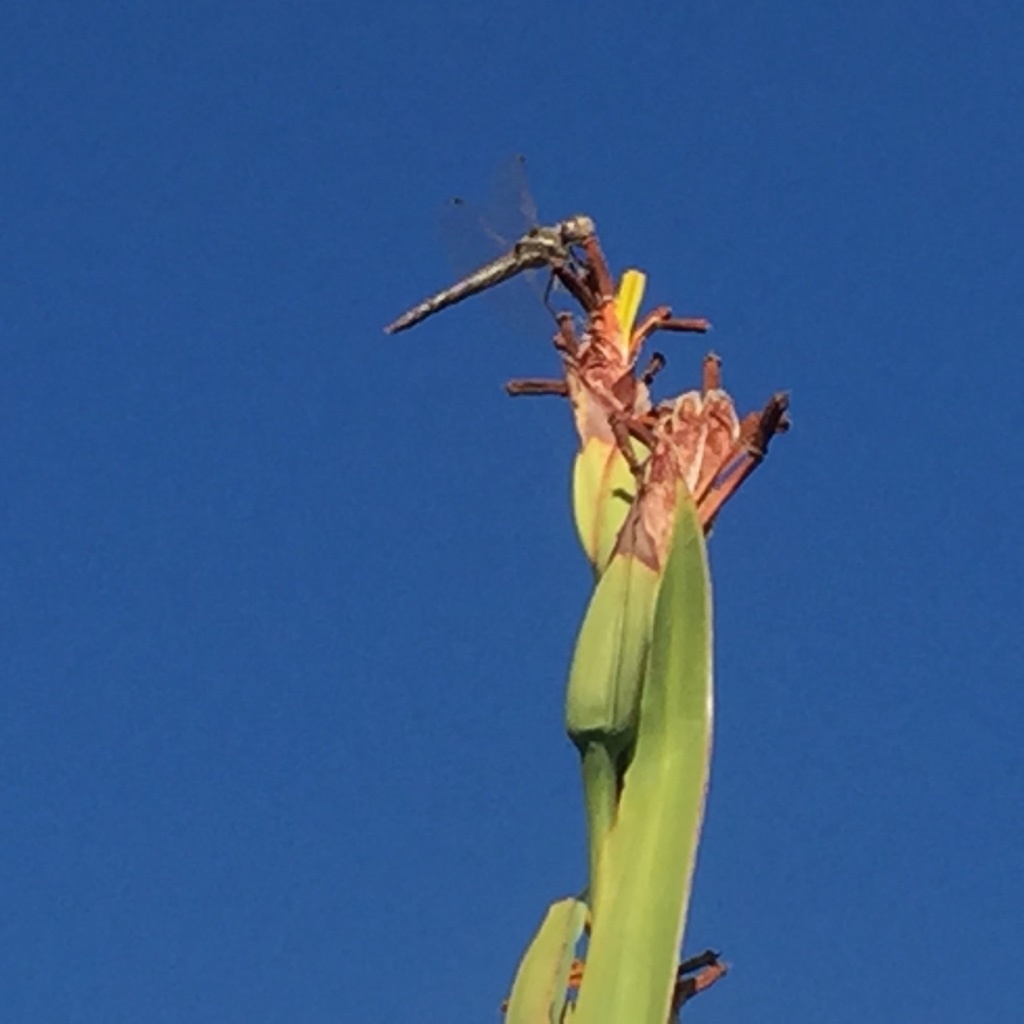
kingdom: Animalia
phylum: Arthropoda
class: Insecta
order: Odonata
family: Libellulidae
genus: Sympetrum
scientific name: Sympetrum corruptum
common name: Variegated meadowhawk
